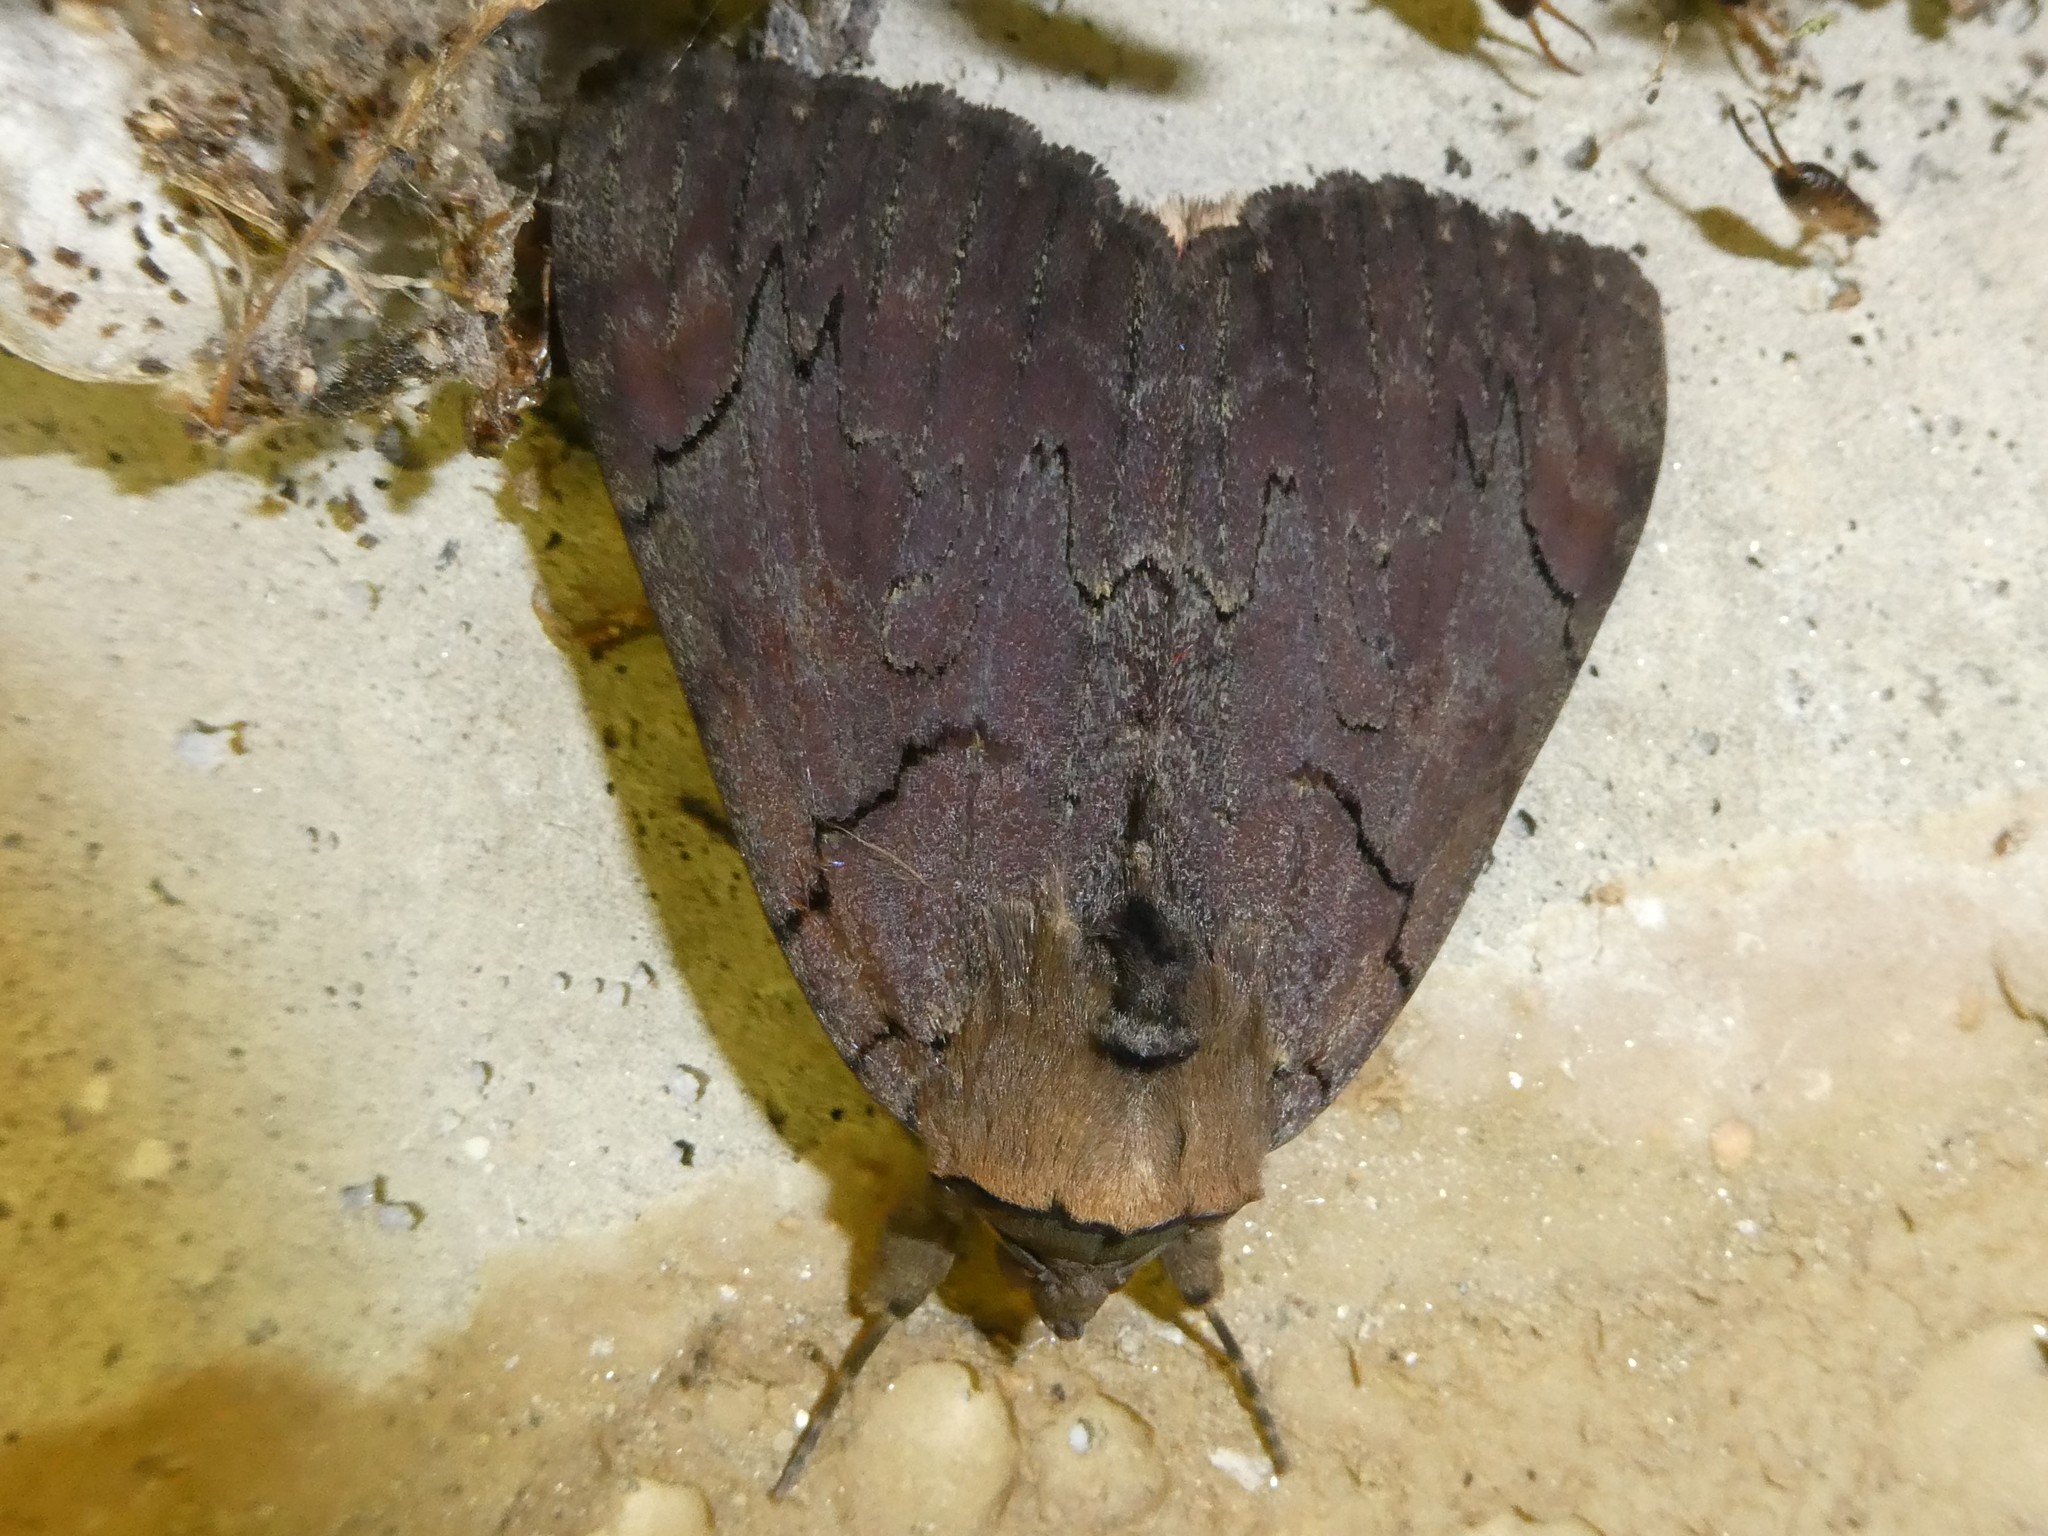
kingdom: Animalia
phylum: Arthropoda
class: Insecta
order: Lepidoptera
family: Erebidae
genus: Catocala
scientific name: Catocala cara
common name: Darling underwing
